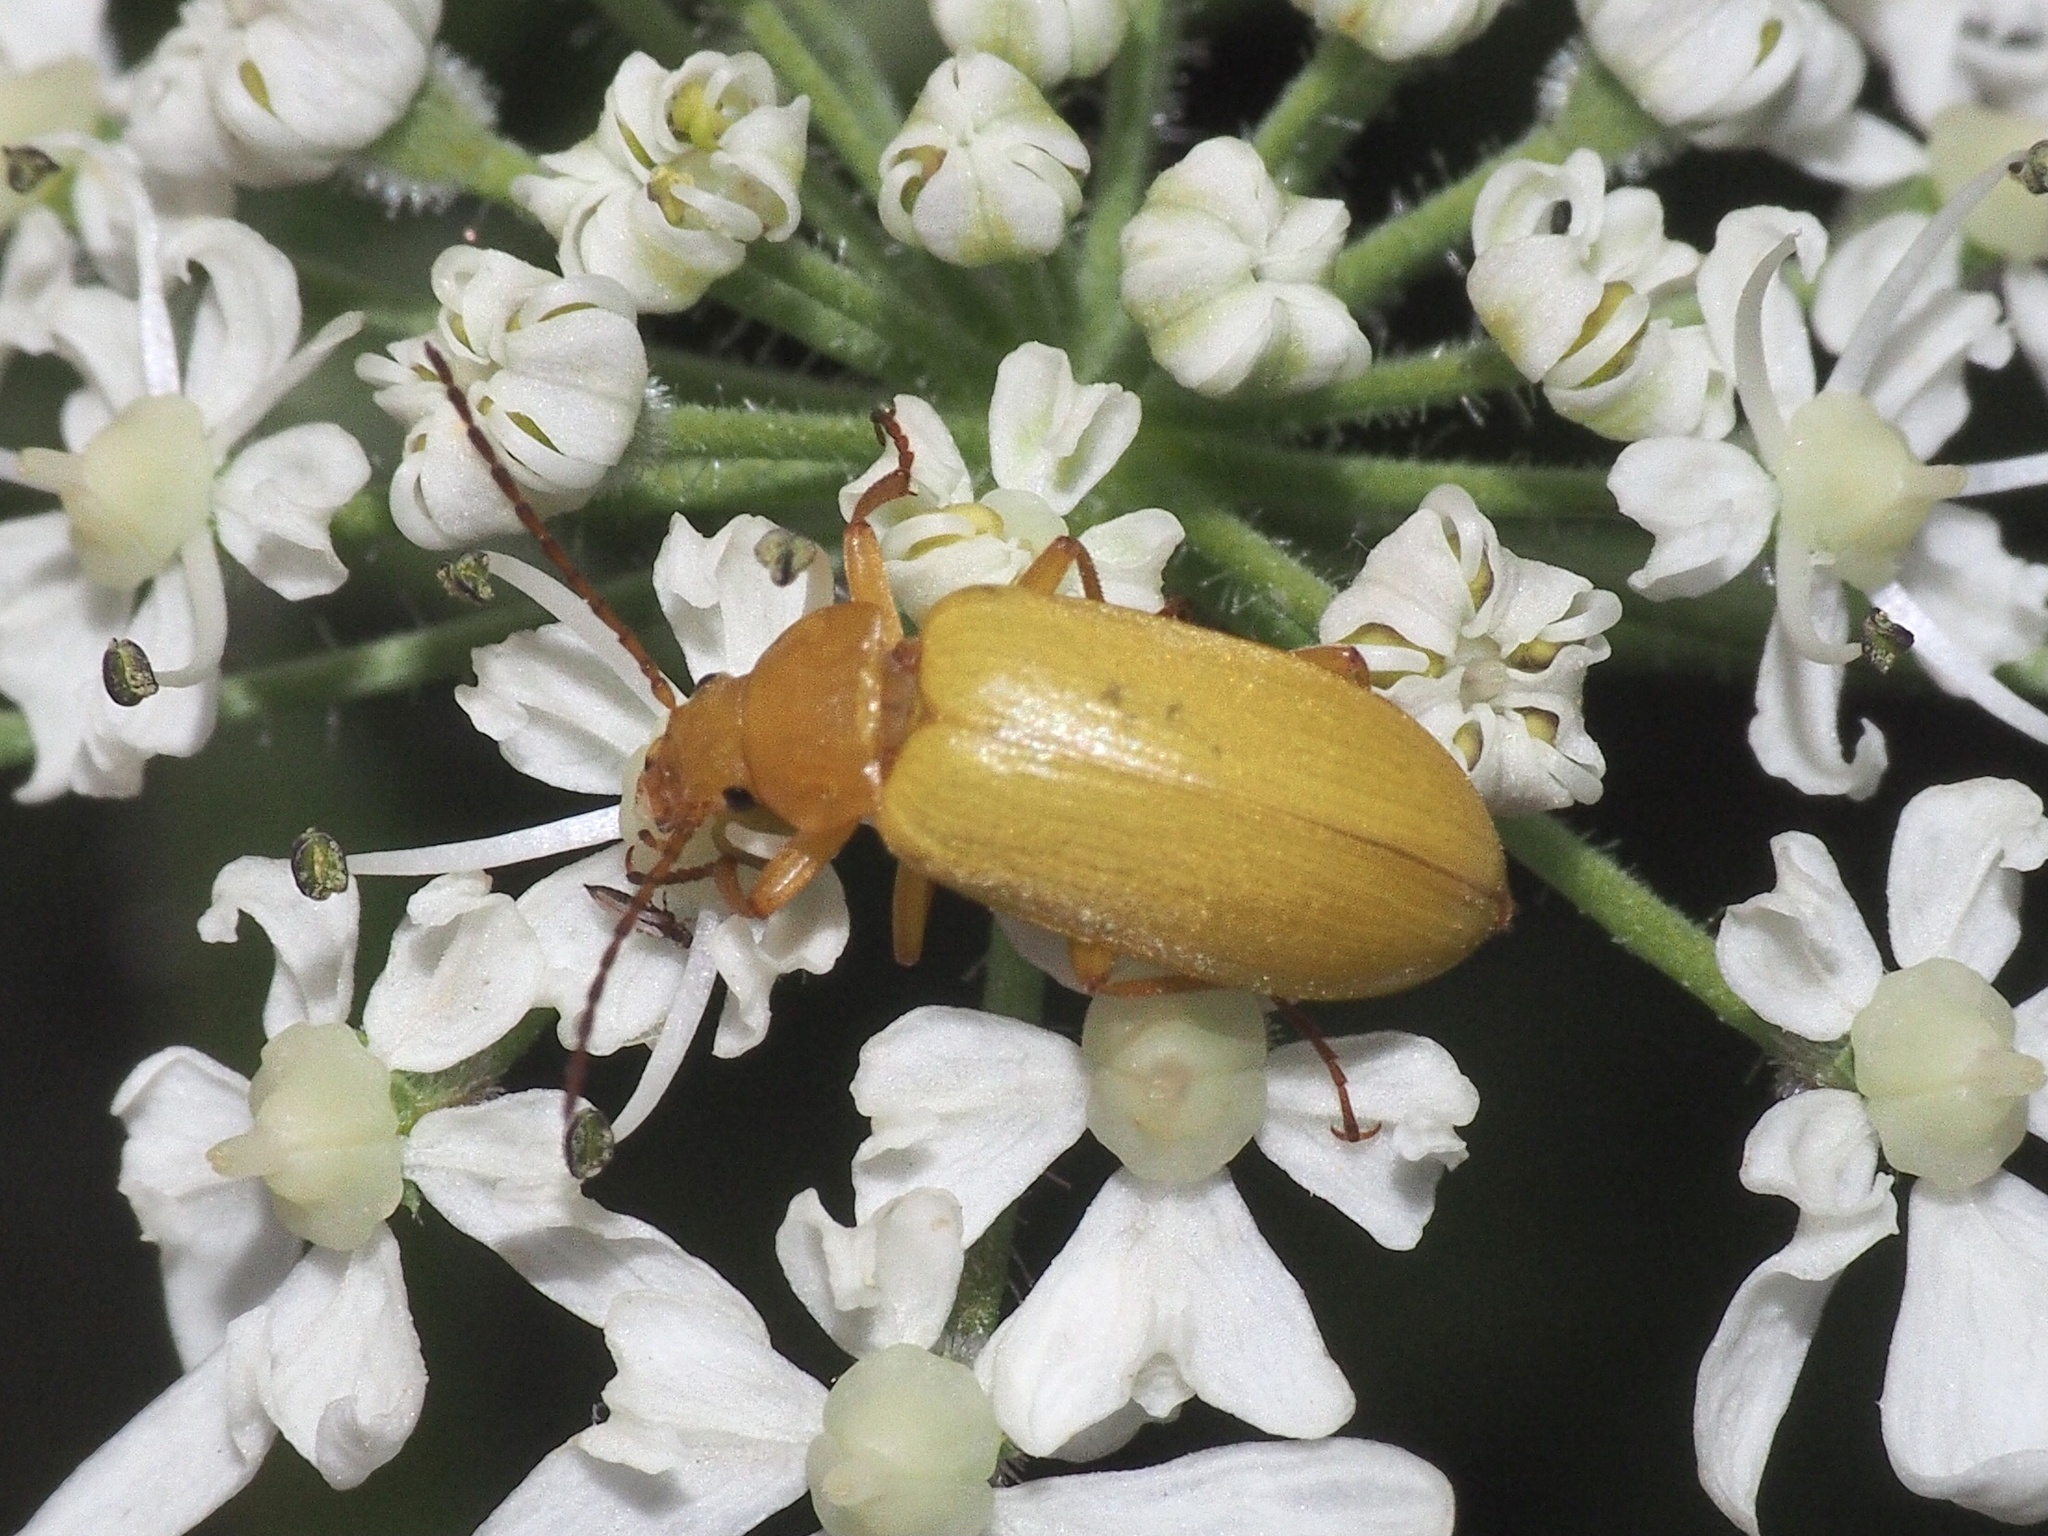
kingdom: Animalia
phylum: Arthropoda
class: Insecta
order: Coleoptera
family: Tenebrionidae
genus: Cteniopus
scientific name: Cteniopus sulphureus
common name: Sulphur beetle
